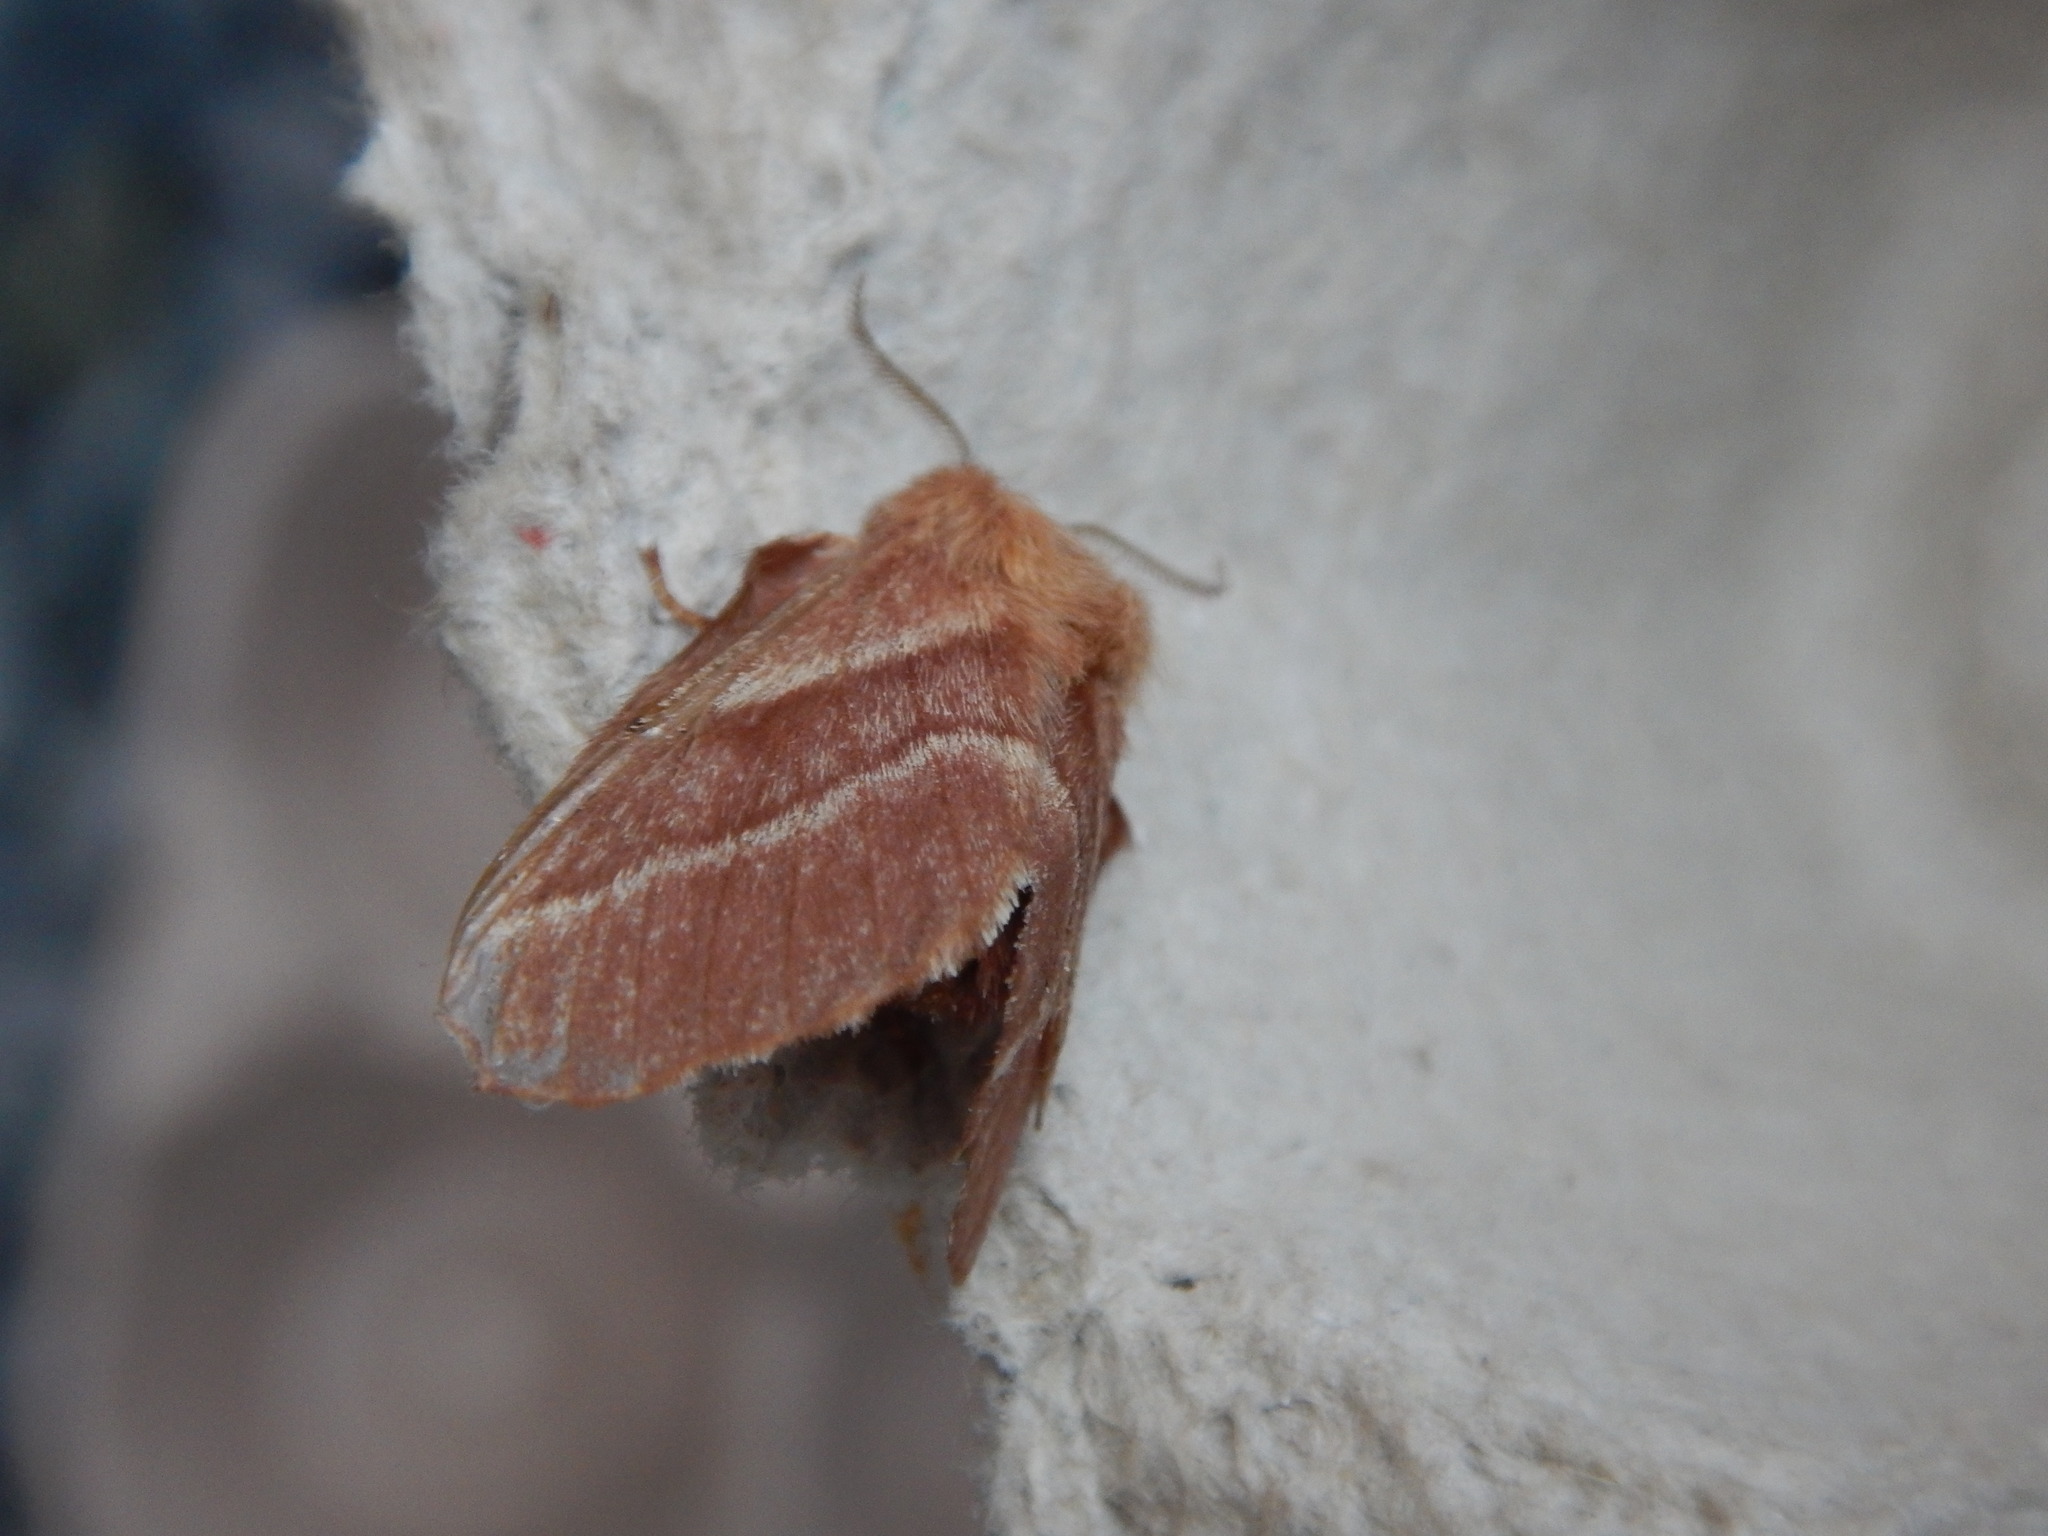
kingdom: Animalia
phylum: Arthropoda
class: Insecta
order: Lepidoptera
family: Lasiocampidae
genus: Malacosoma
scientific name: Malacosoma americana
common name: Eastern tent caterpillar moth
